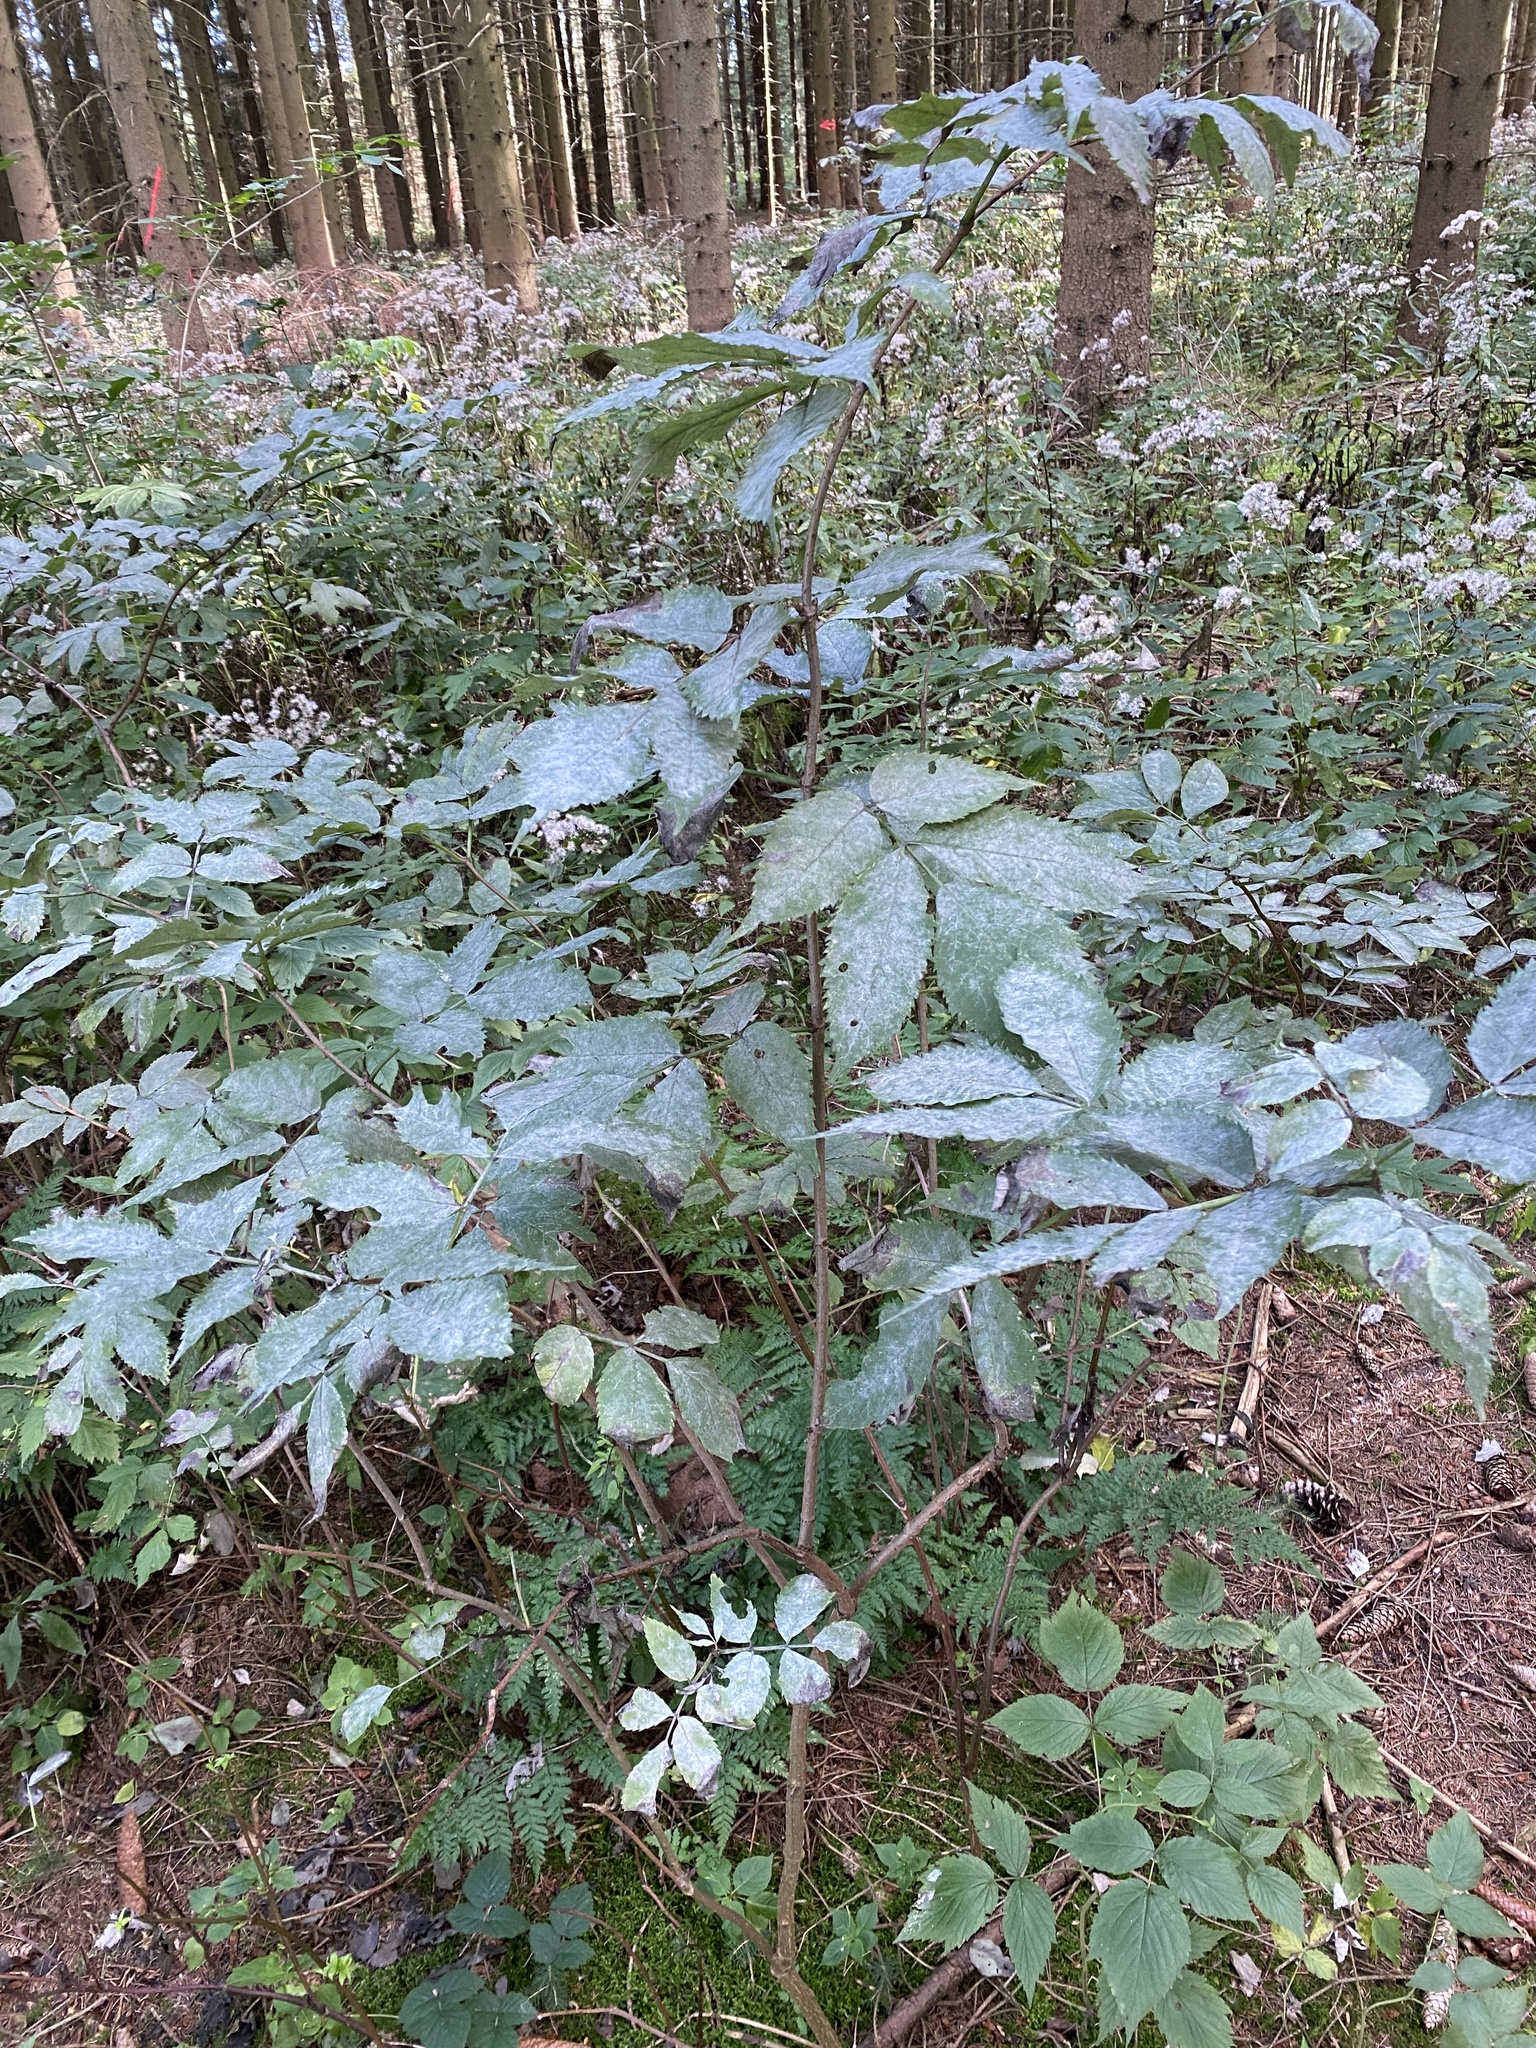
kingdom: Fungi
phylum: Ascomycota
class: Leotiomycetes
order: Helotiales
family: Erysiphaceae
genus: Erysiphe
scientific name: Erysiphe sambuci
